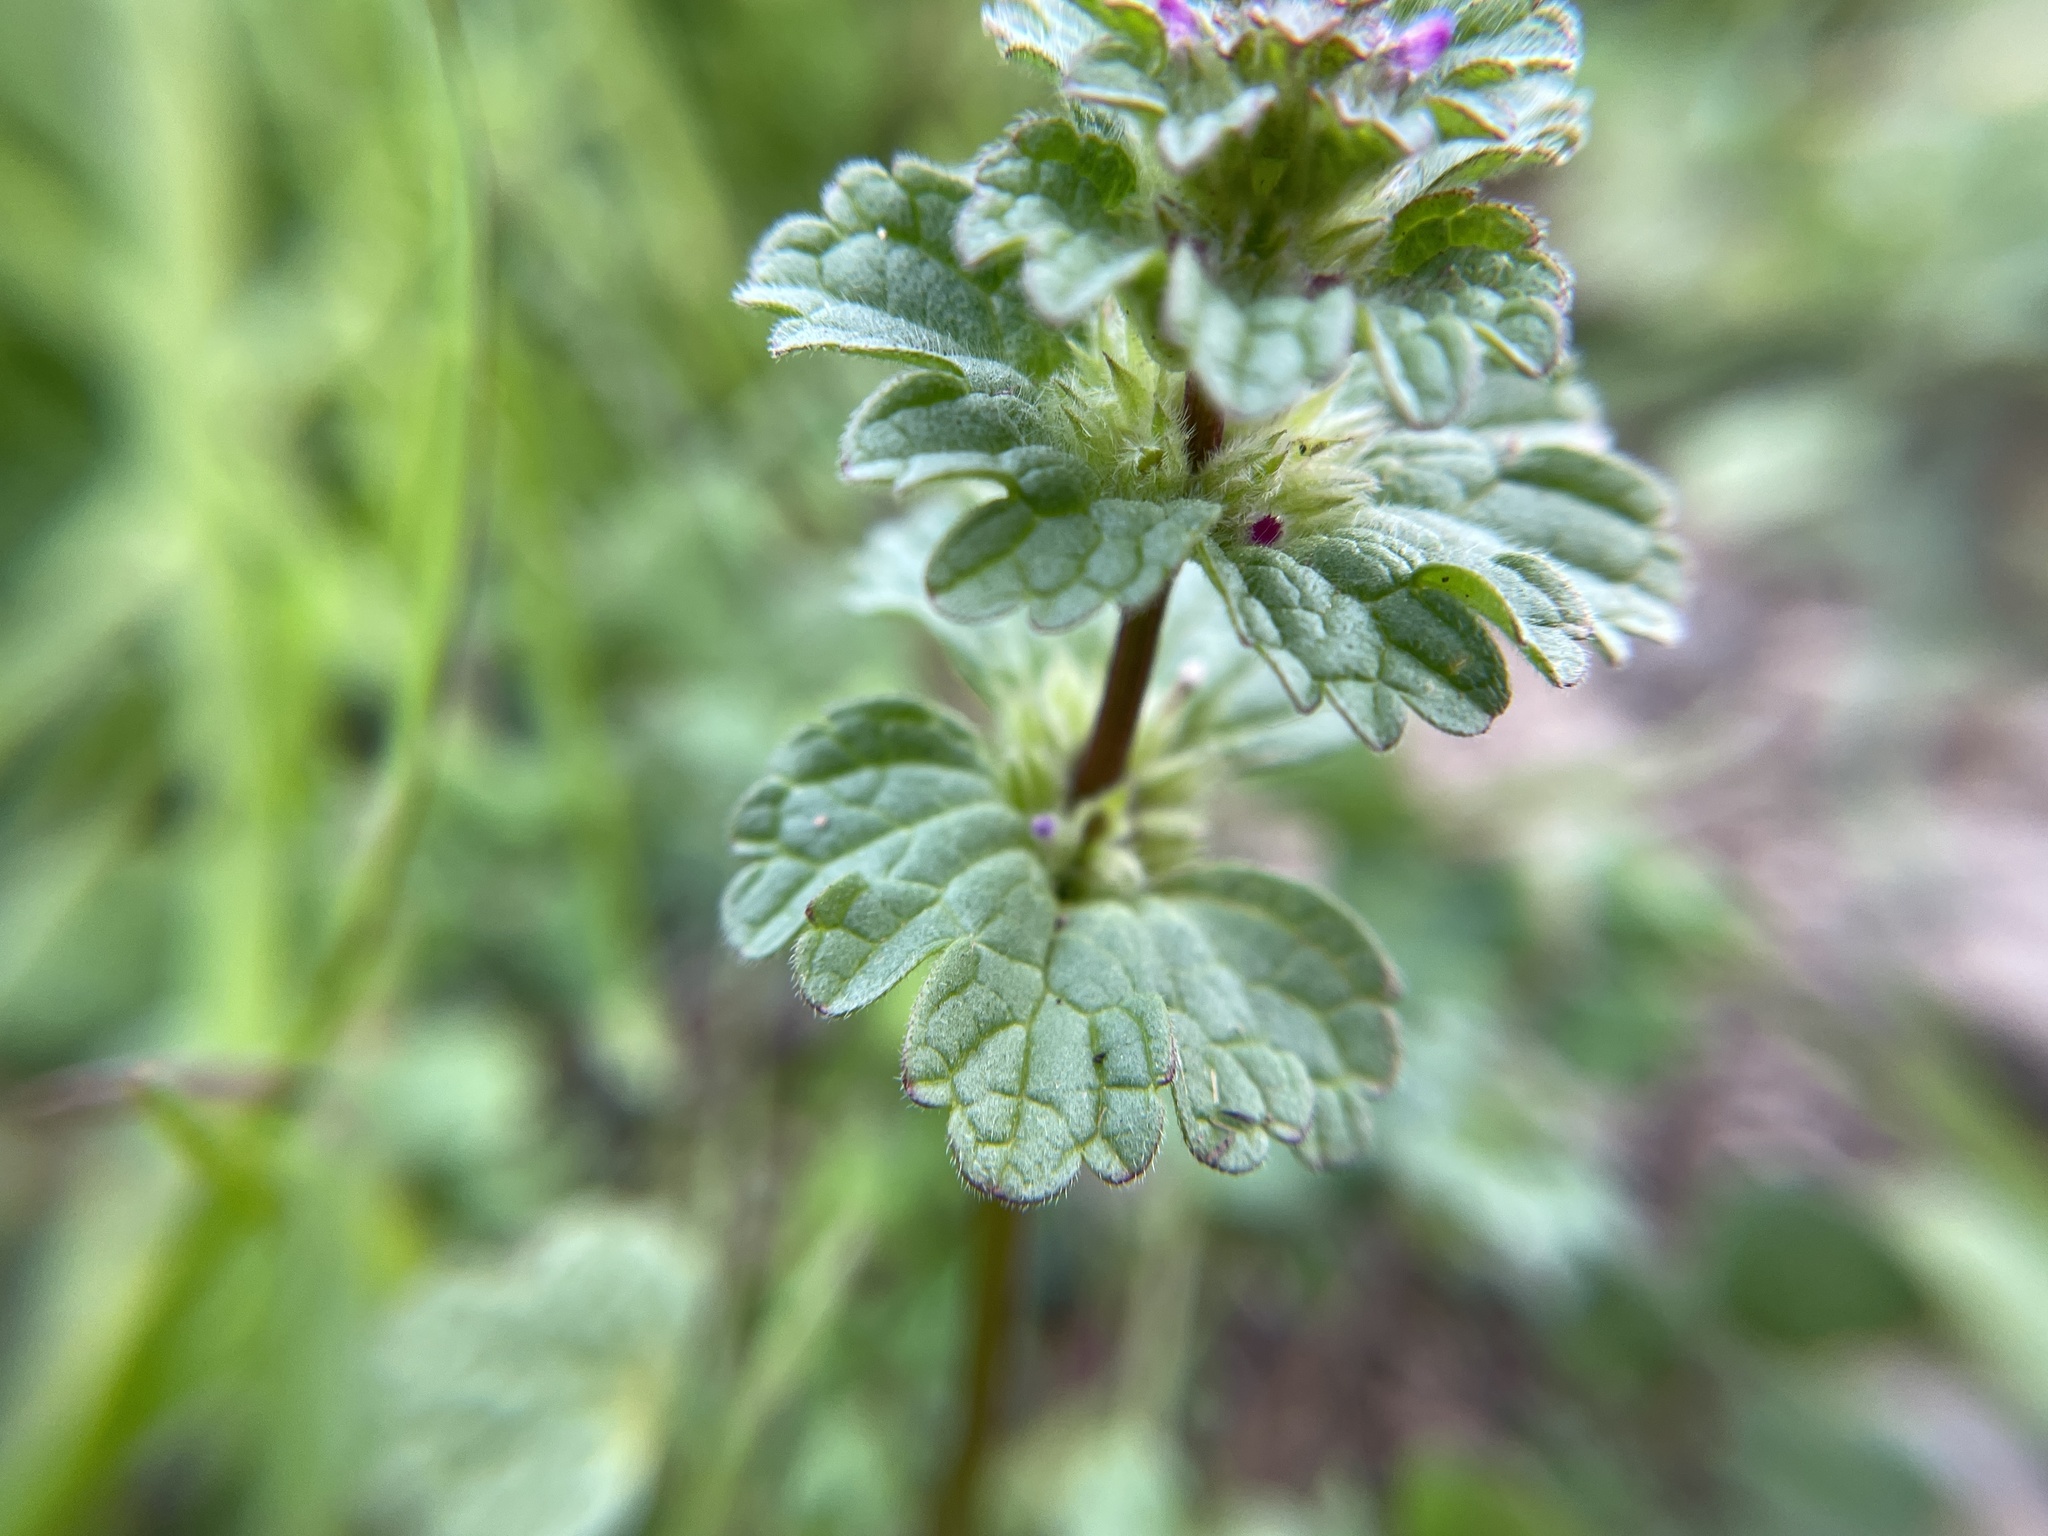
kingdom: Plantae
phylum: Tracheophyta
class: Magnoliopsida
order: Lamiales
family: Lamiaceae
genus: Lamium
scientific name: Lamium amplexicaule
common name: Henbit dead-nettle
